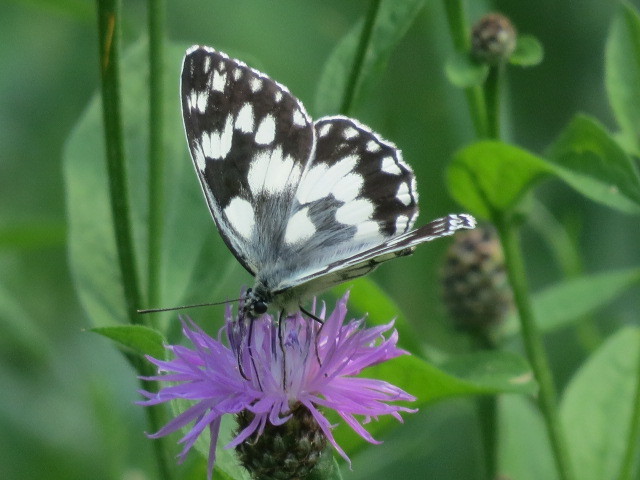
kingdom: Animalia
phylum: Arthropoda
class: Insecta
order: Lepidoptera
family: Nymphalidae
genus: Melanargia
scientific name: Melanargia galathea
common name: Marbled white
